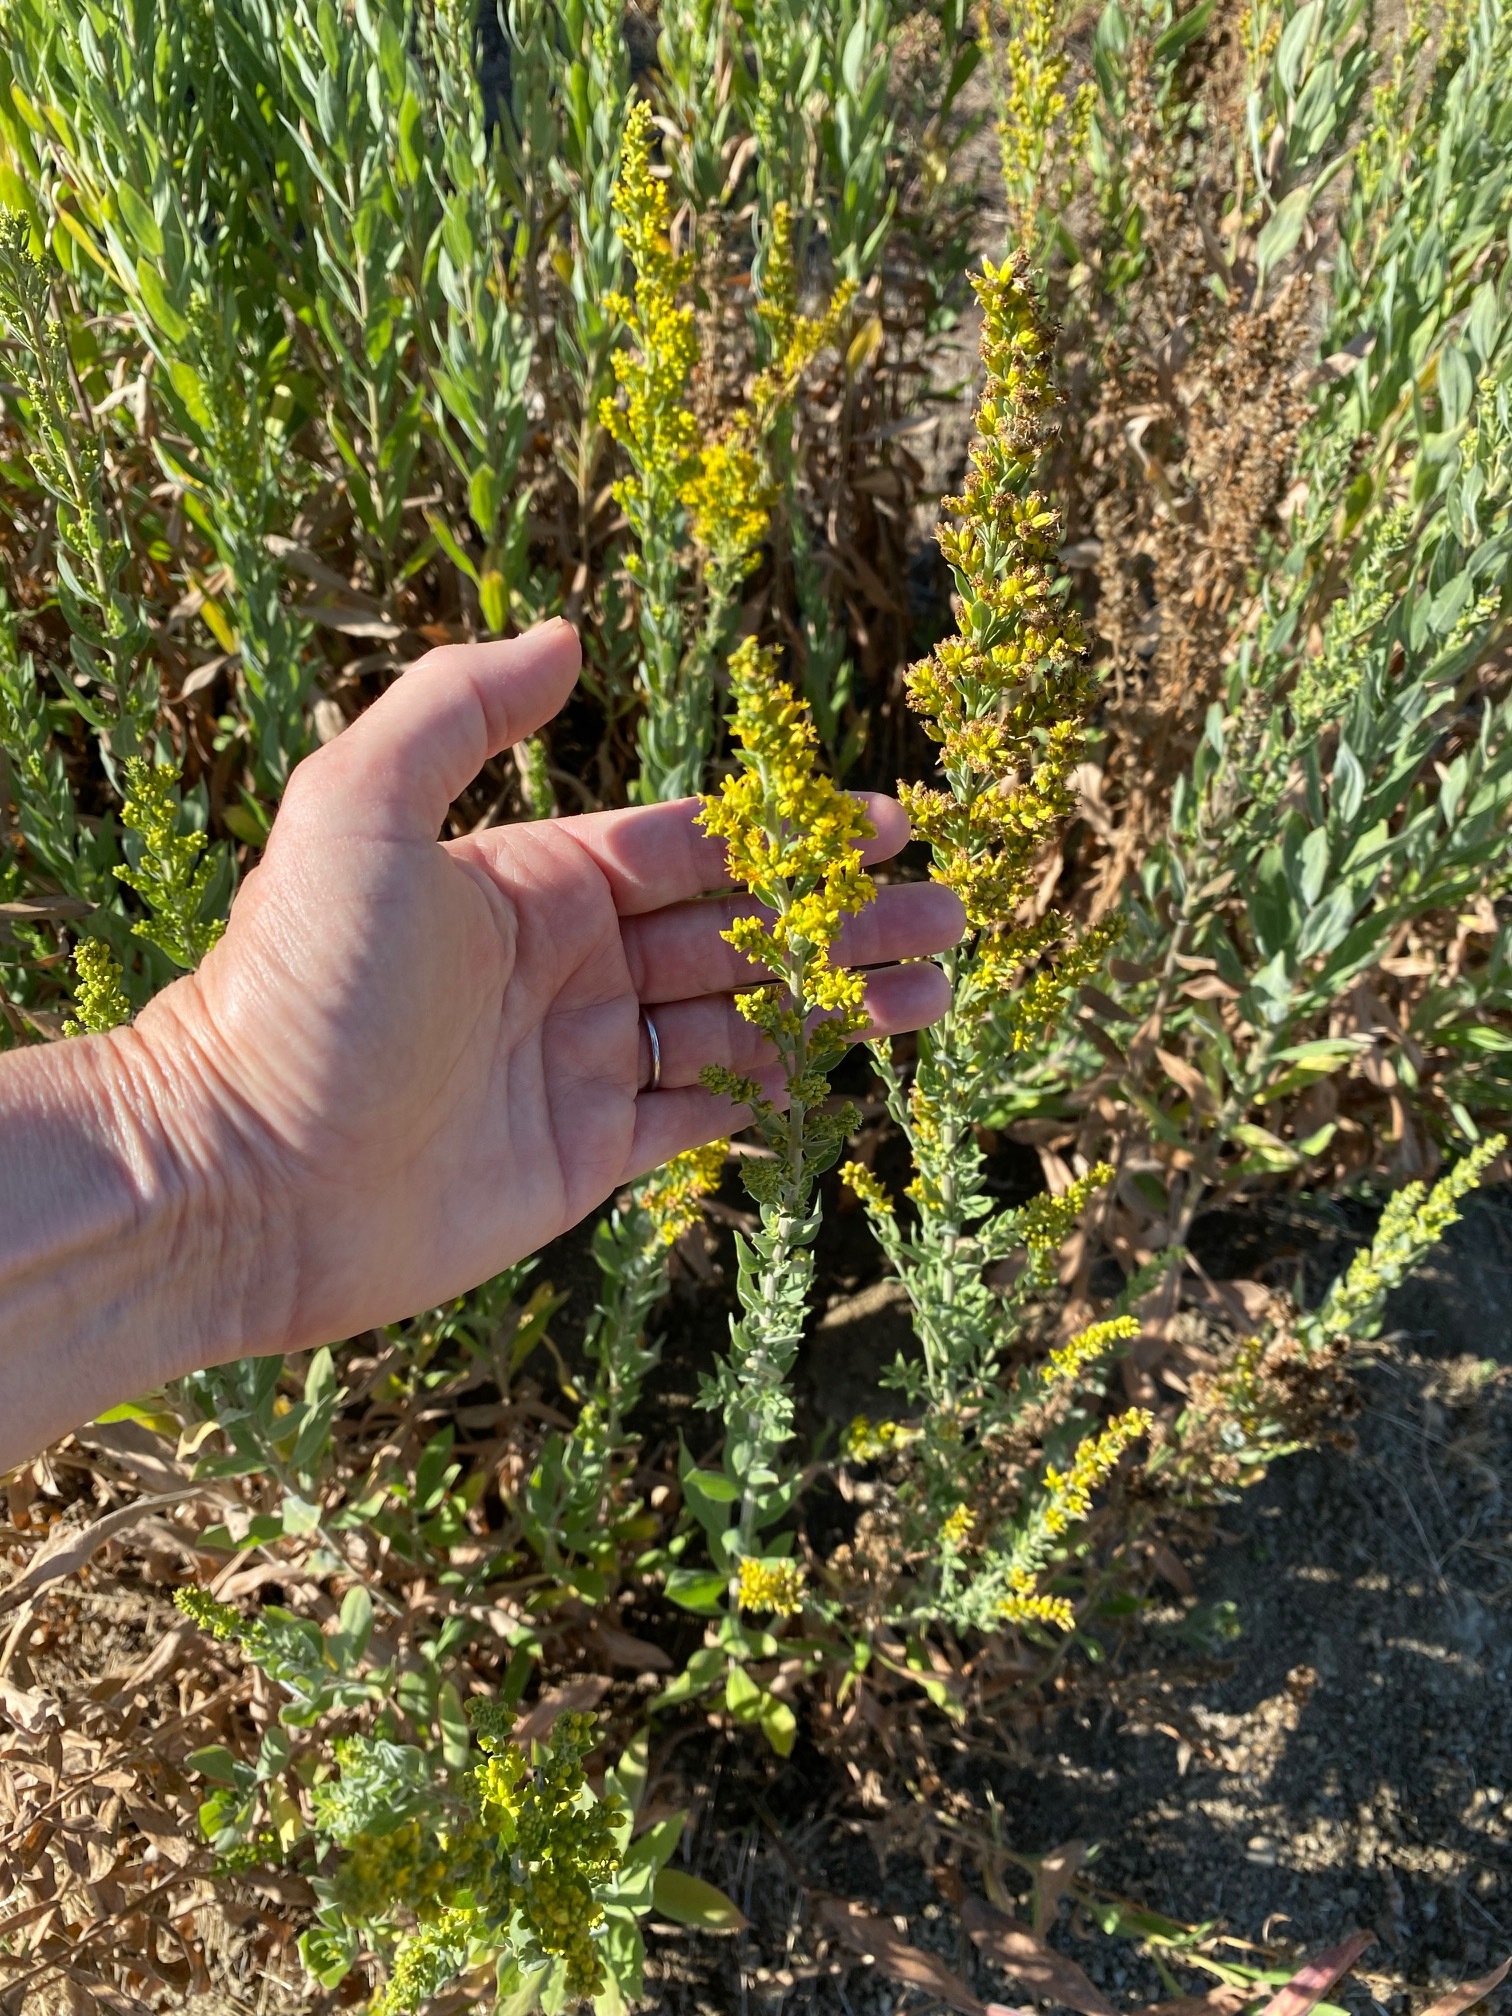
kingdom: Plantae
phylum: Tracheophyta
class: Magnoliopsida
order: Asterales
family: Asteraceae
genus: Solidago
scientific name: Solidago velutina
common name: Three-nerve goldenrod
